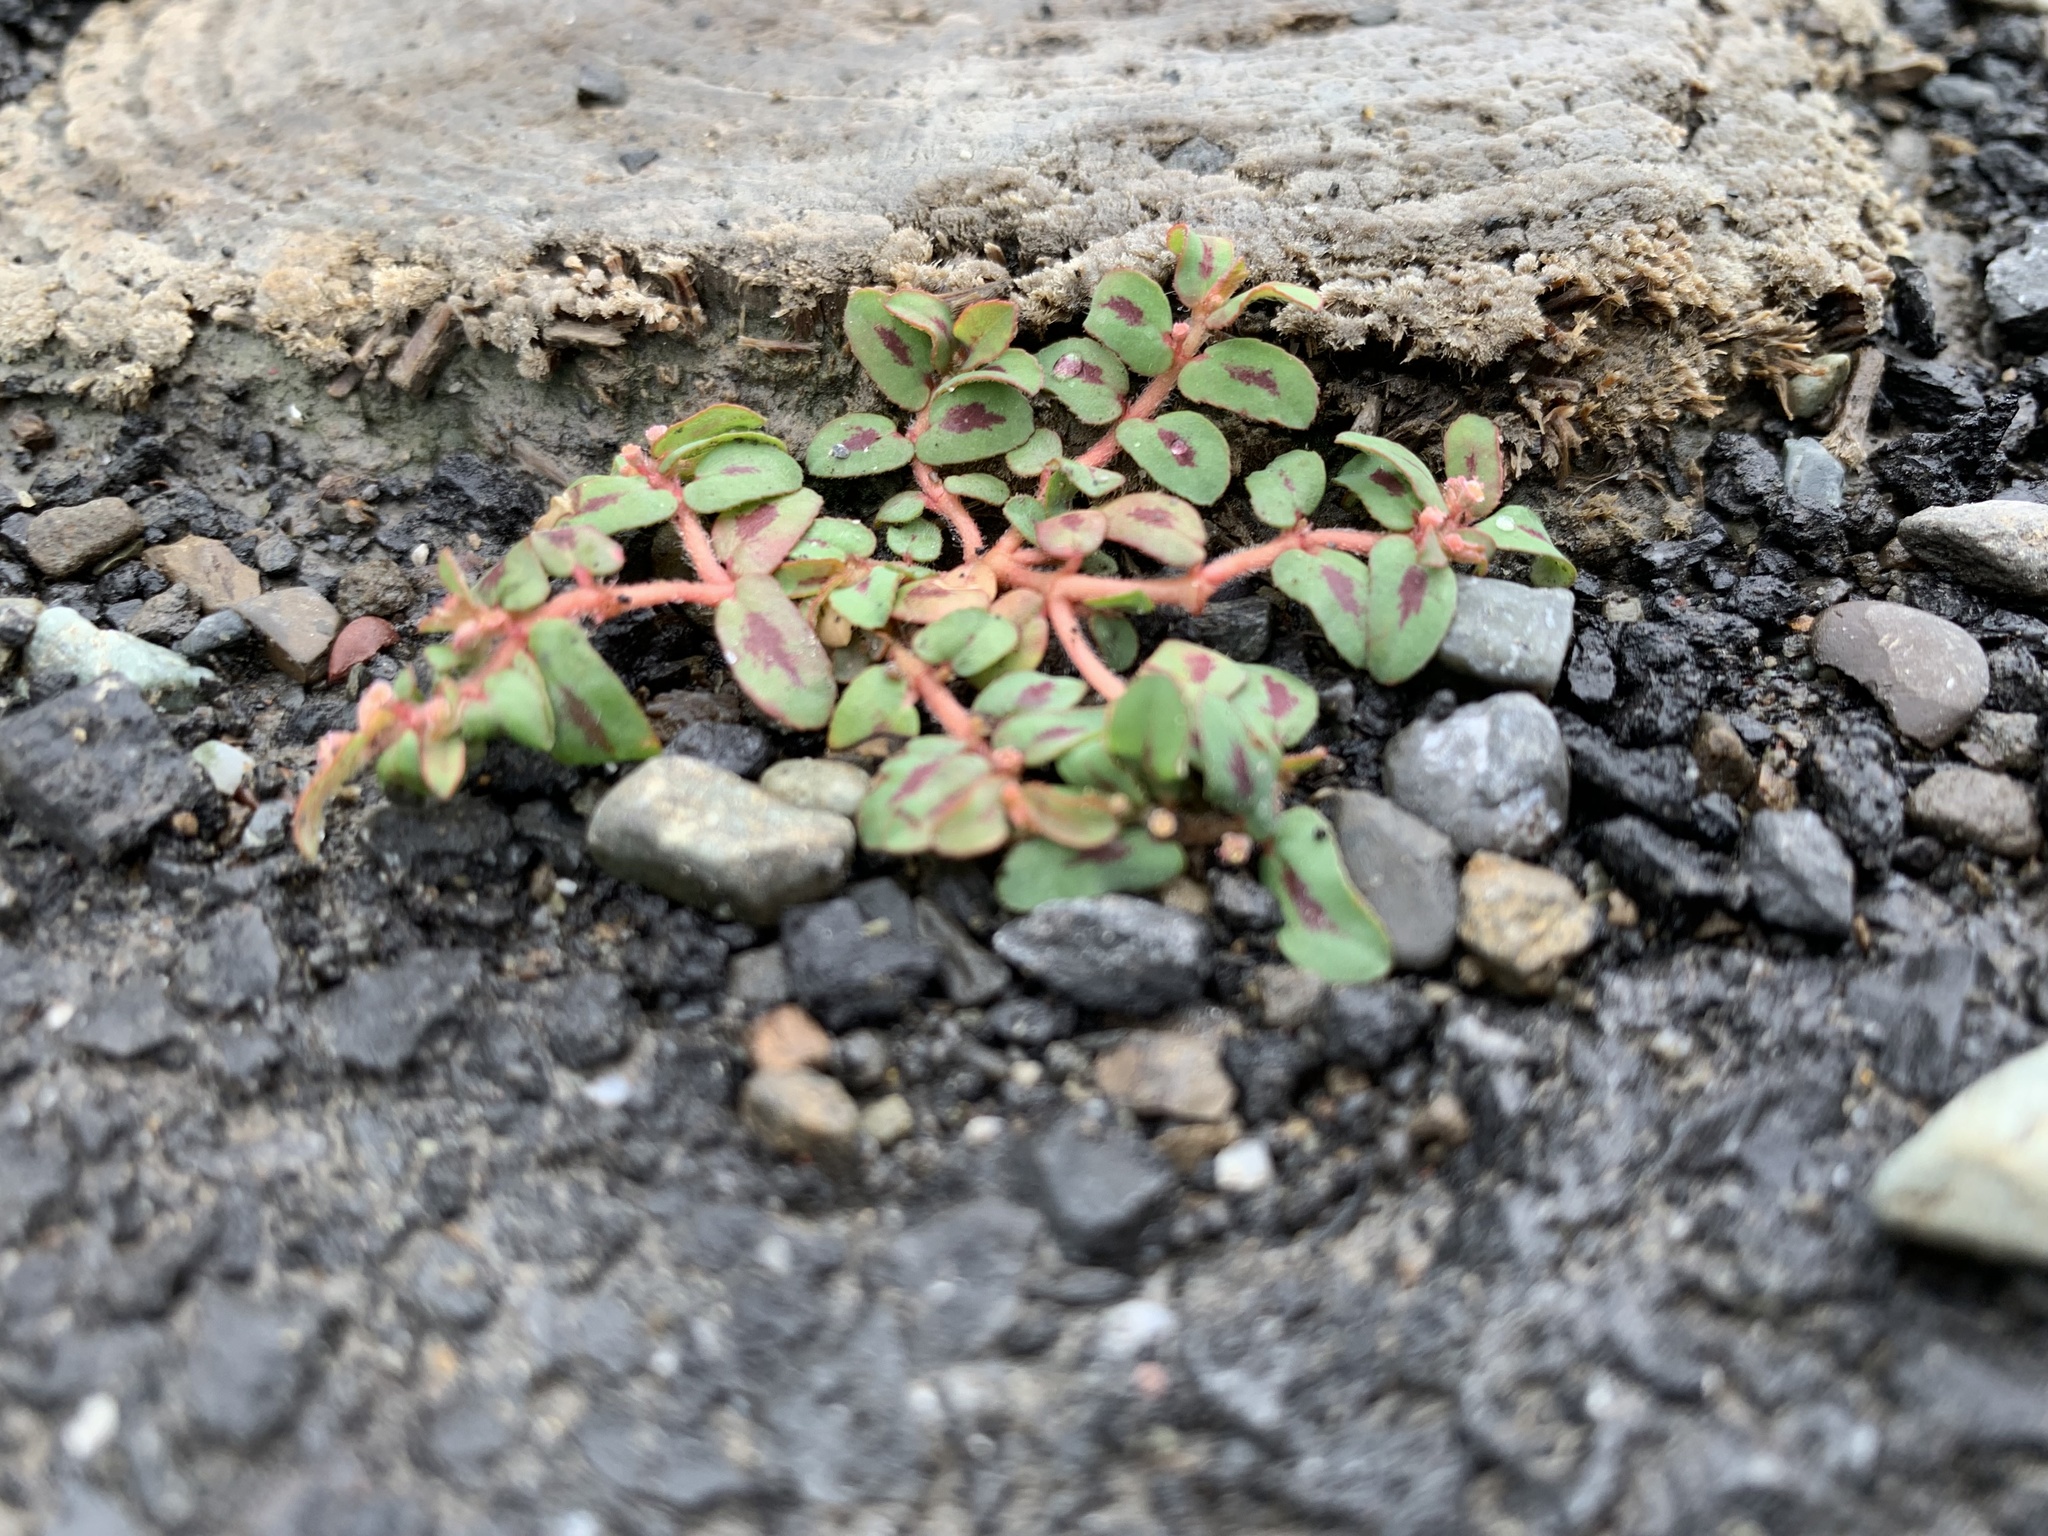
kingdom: Plantae
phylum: Tracheophyta
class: Magnoliopsida
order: Malpighiales
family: Euphorbiaceae
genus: Euphorbia
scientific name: Euphorbia maculata
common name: Spotted spurge
